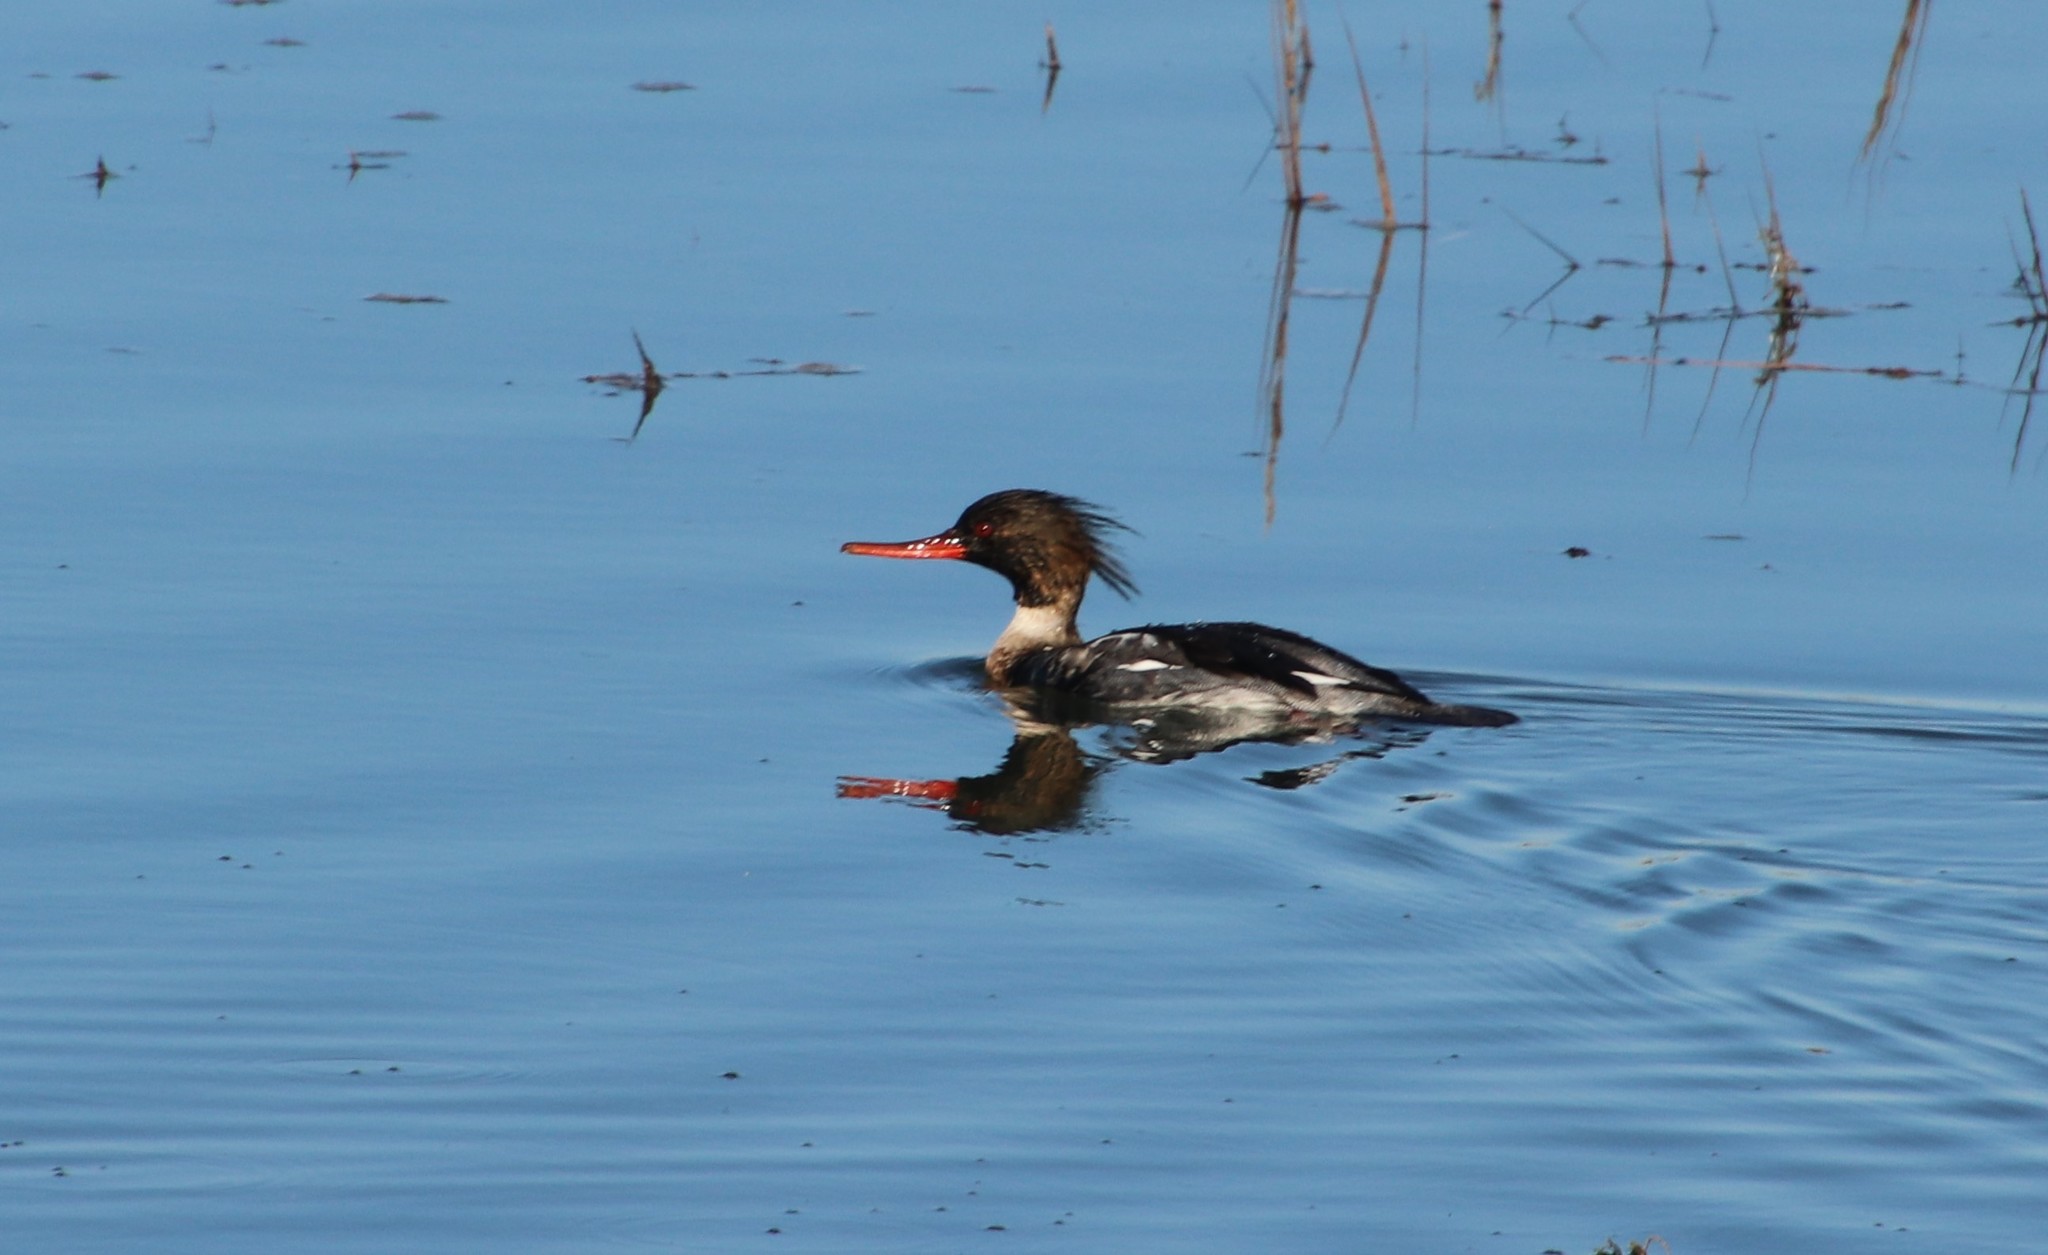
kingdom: Animalia
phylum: Chordata
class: Aves
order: Anseriformes
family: Anatidae
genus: Mergus
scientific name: Mergus serrator
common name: Red-breasted merganser
